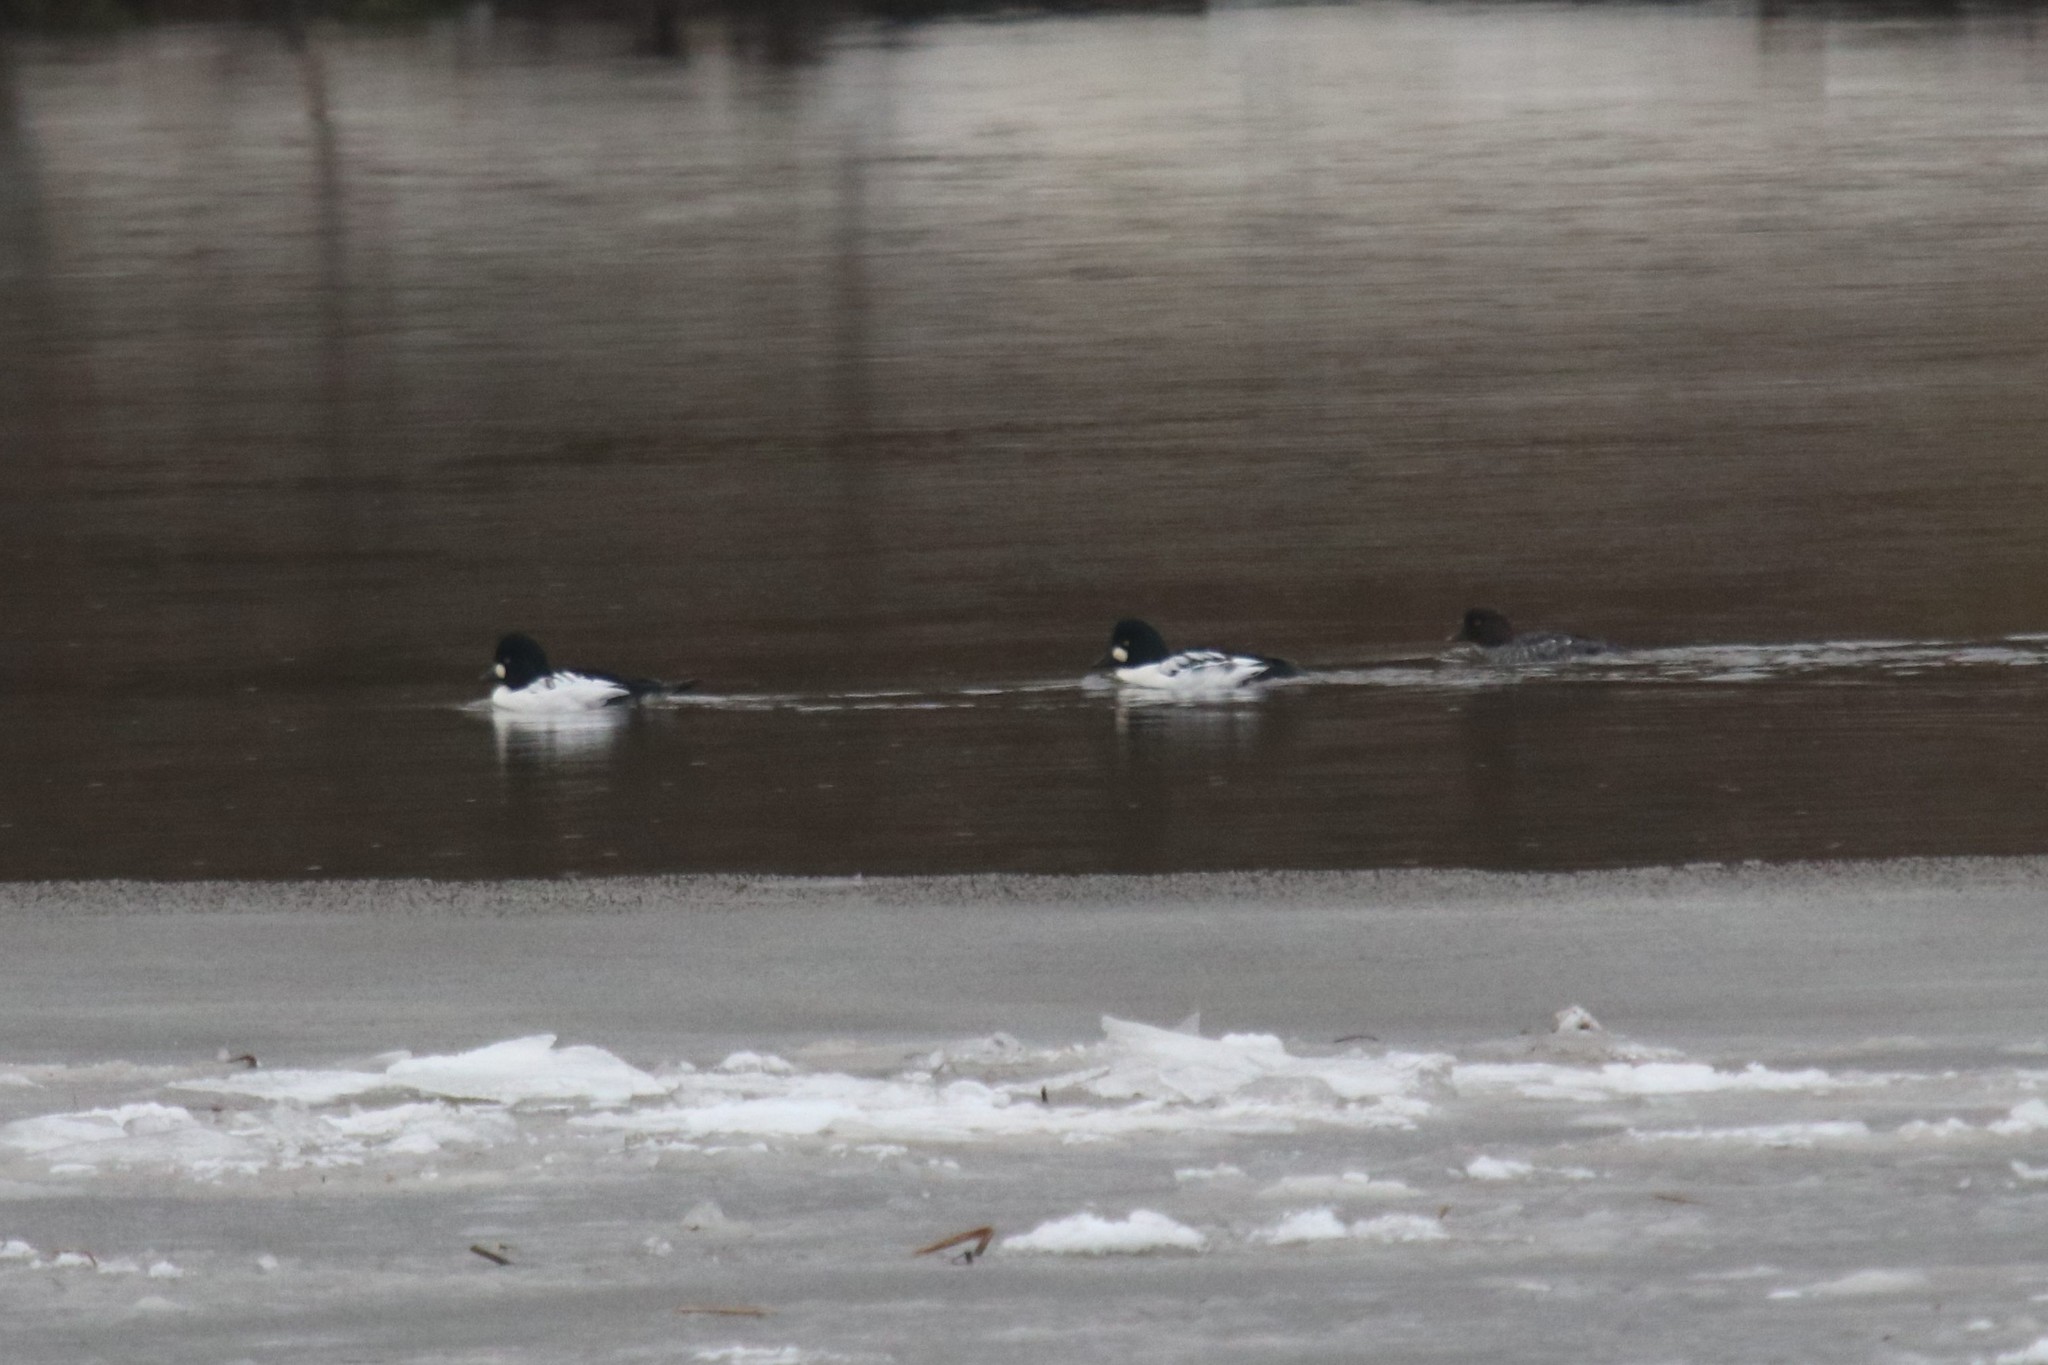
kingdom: Animalia
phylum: Chordata
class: Aves
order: Anseriformes
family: Anatidae
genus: Bucephala
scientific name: Bucephala clangula
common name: Common goldeneye
